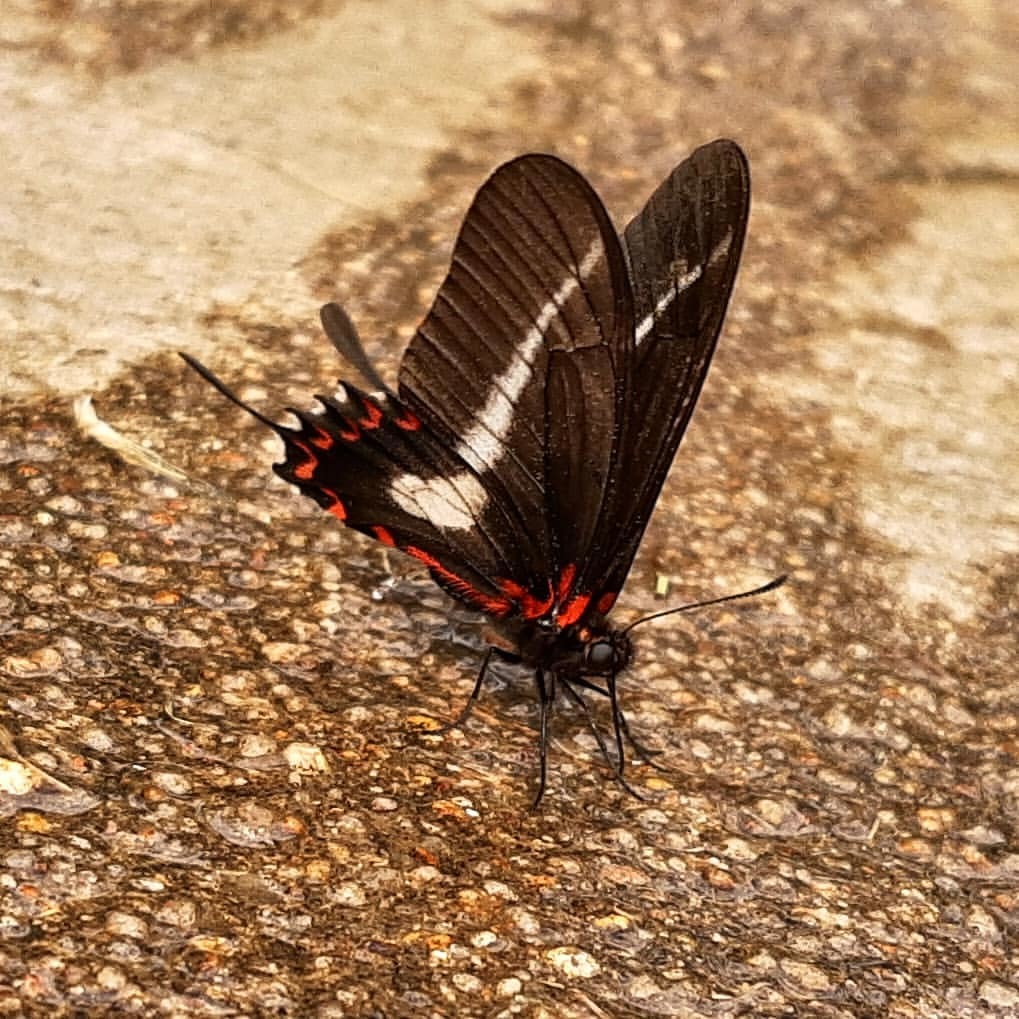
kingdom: Animalia
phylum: Arthropoda
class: Insecta
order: Lepidoptera
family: Papilionidae
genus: Mimoides
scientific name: Mimoides lysithous
